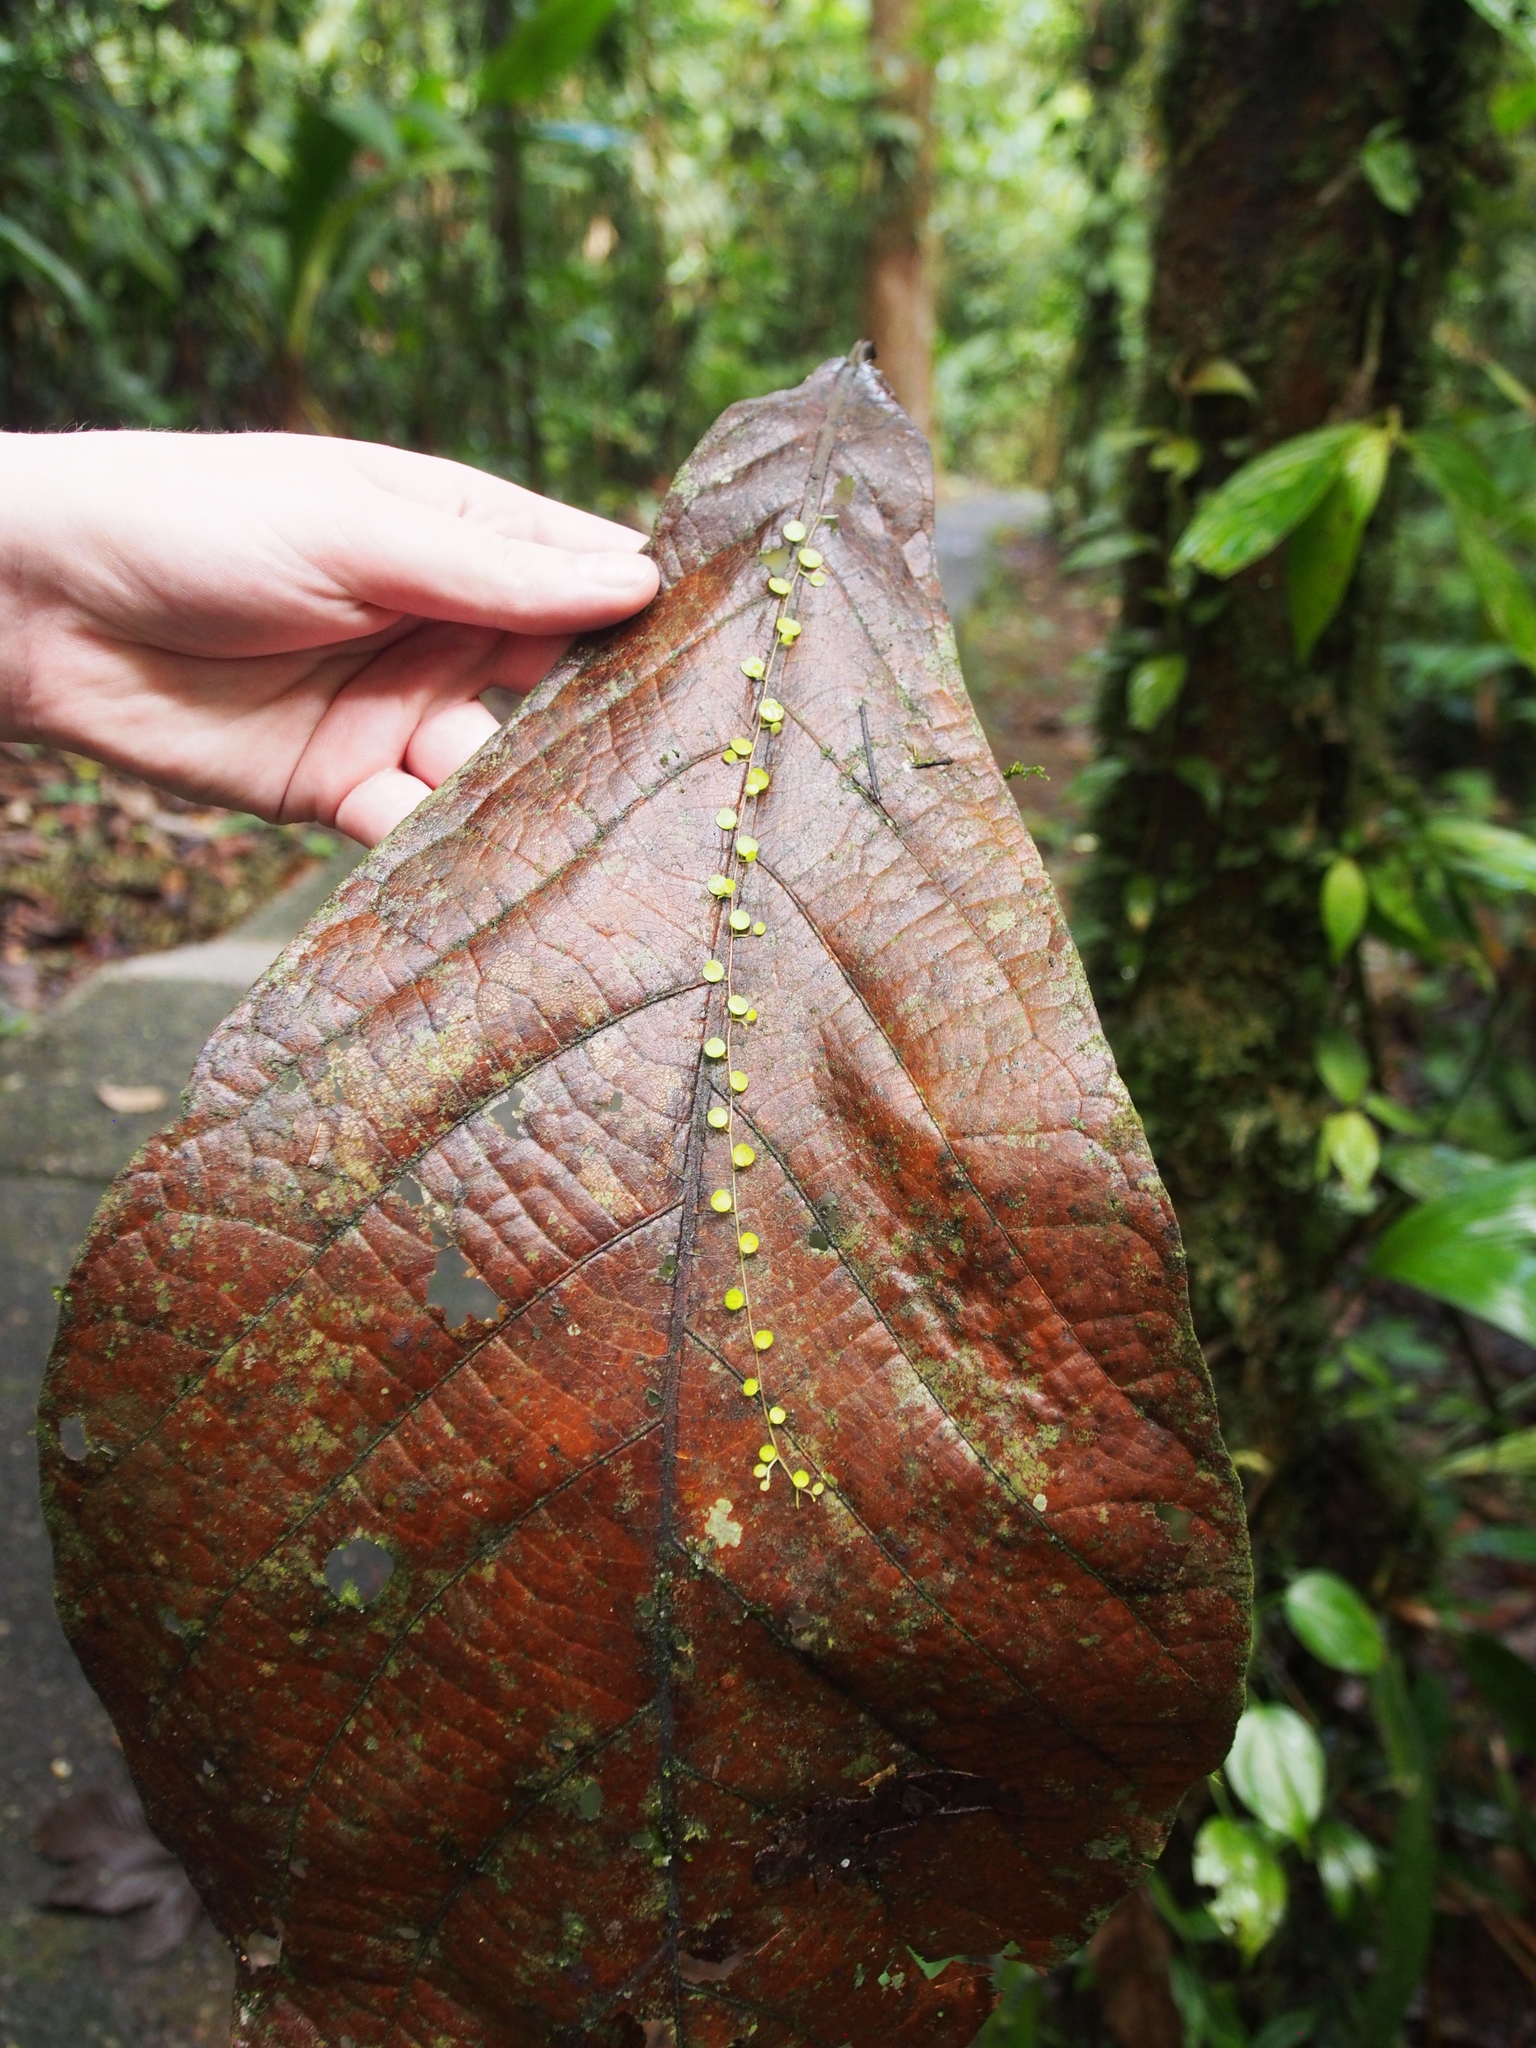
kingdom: Plantae
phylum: Tracheophyta
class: Magnoliopsida
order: Piperales
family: Piperaceae
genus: Peperomia
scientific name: Peperomia emarginella
